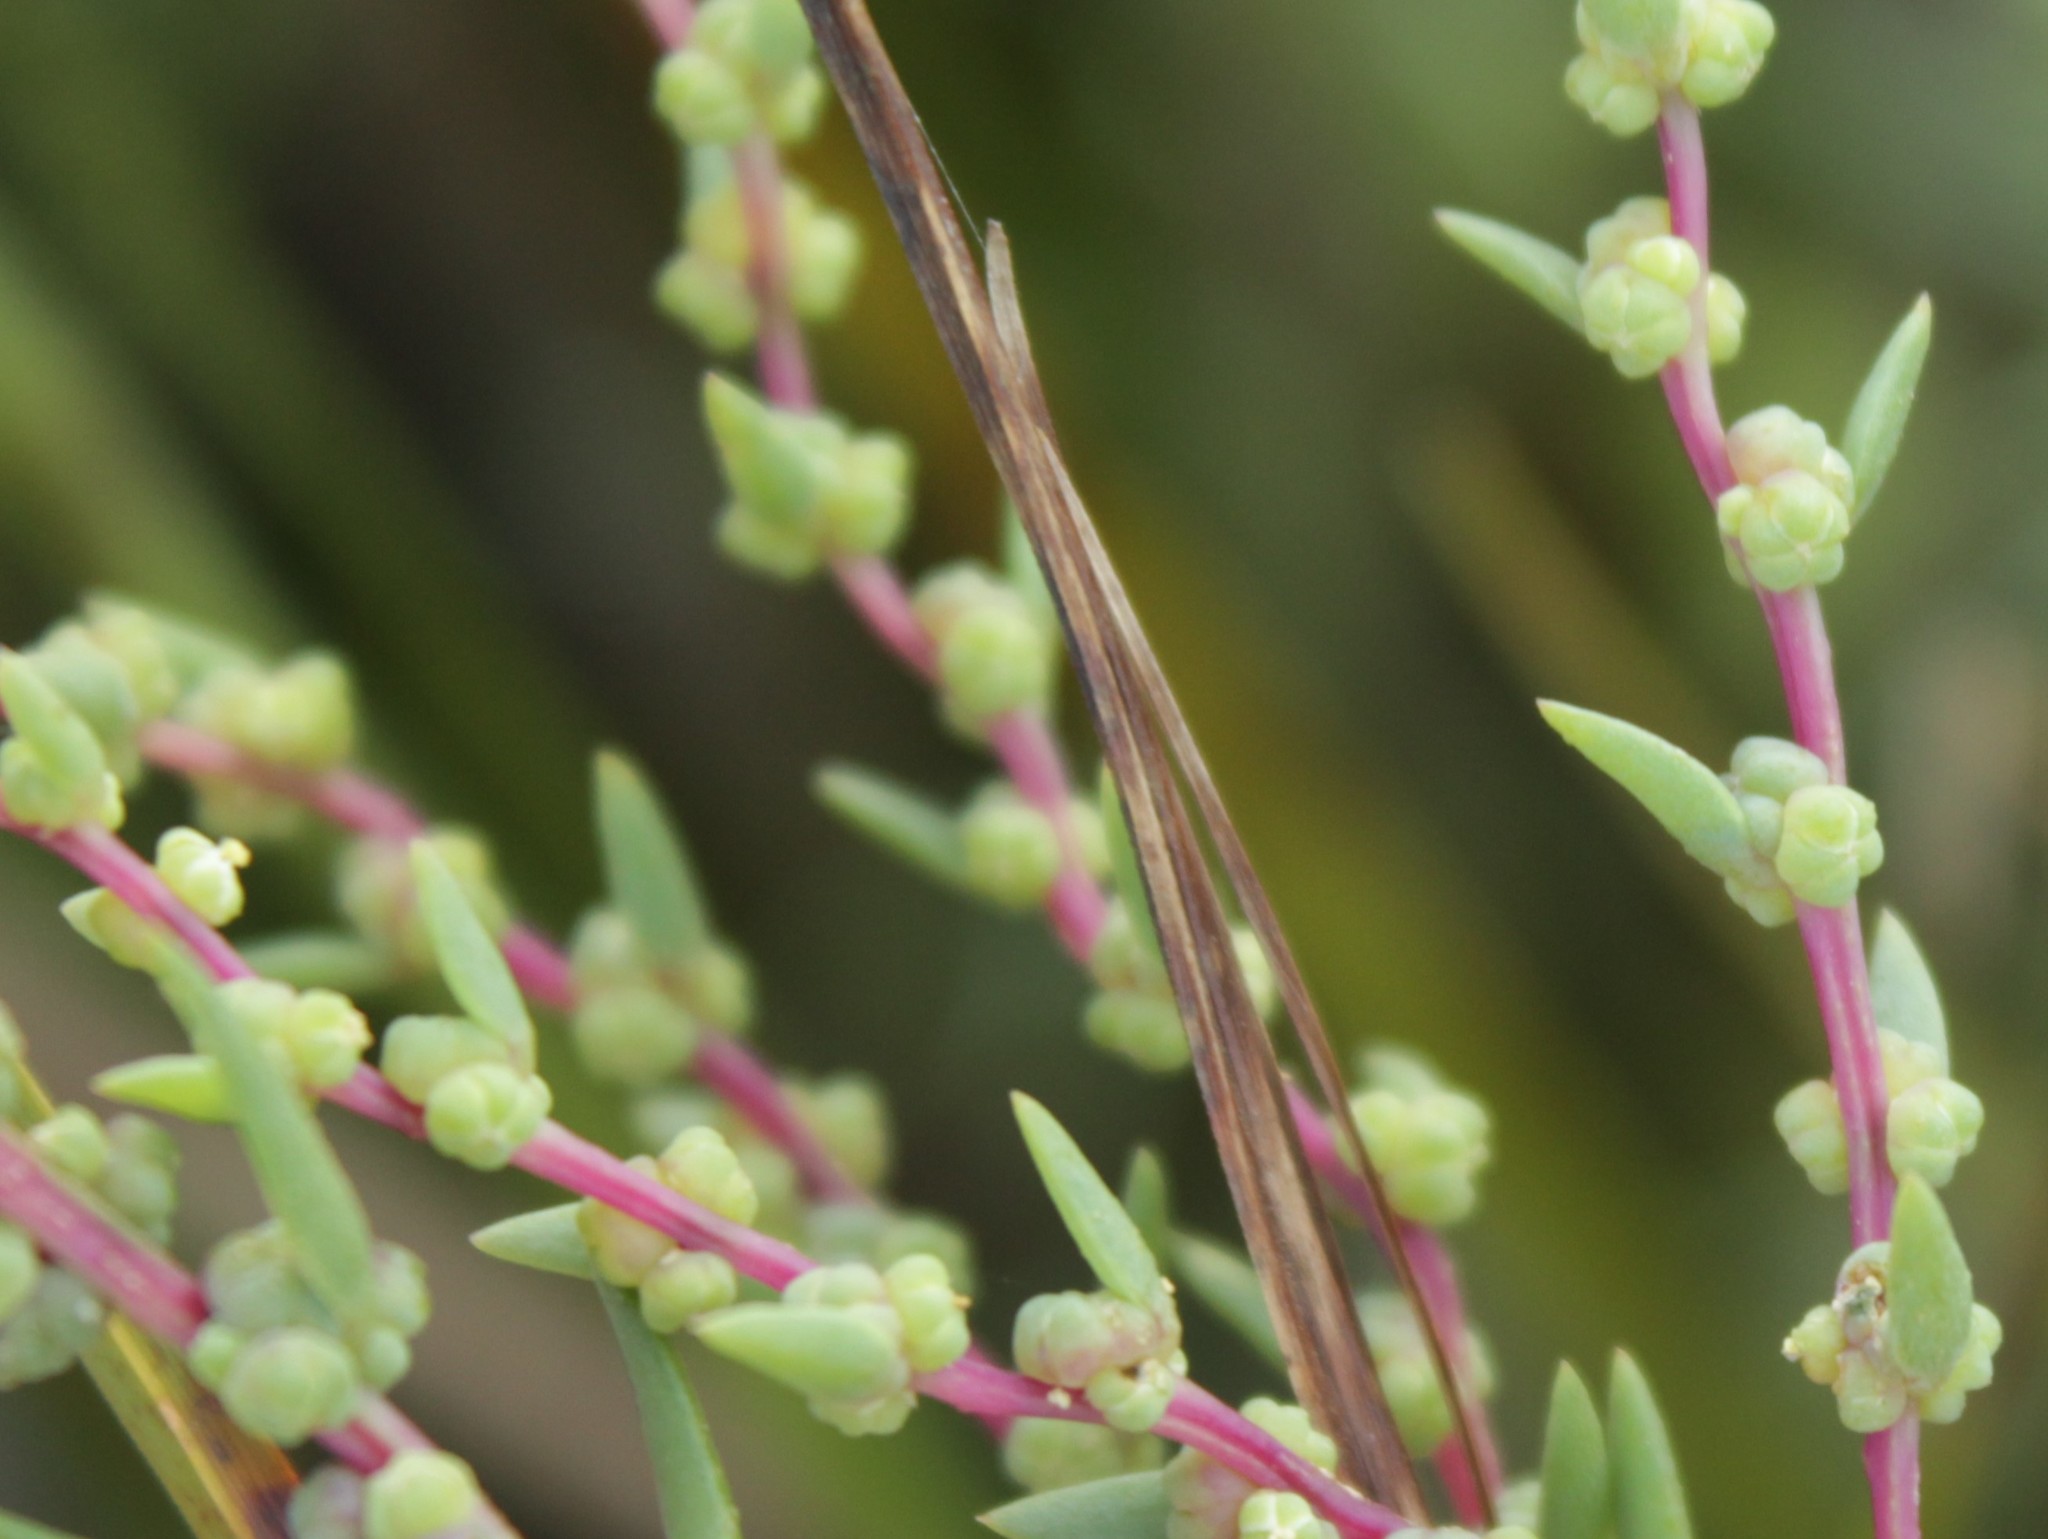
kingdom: Plantae
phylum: Tracheophyta
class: Magnoliopsida
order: Caryophyllales
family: Amaranthaceae
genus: Suaeda
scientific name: Suaeda maritima
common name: Annual sea-blite
